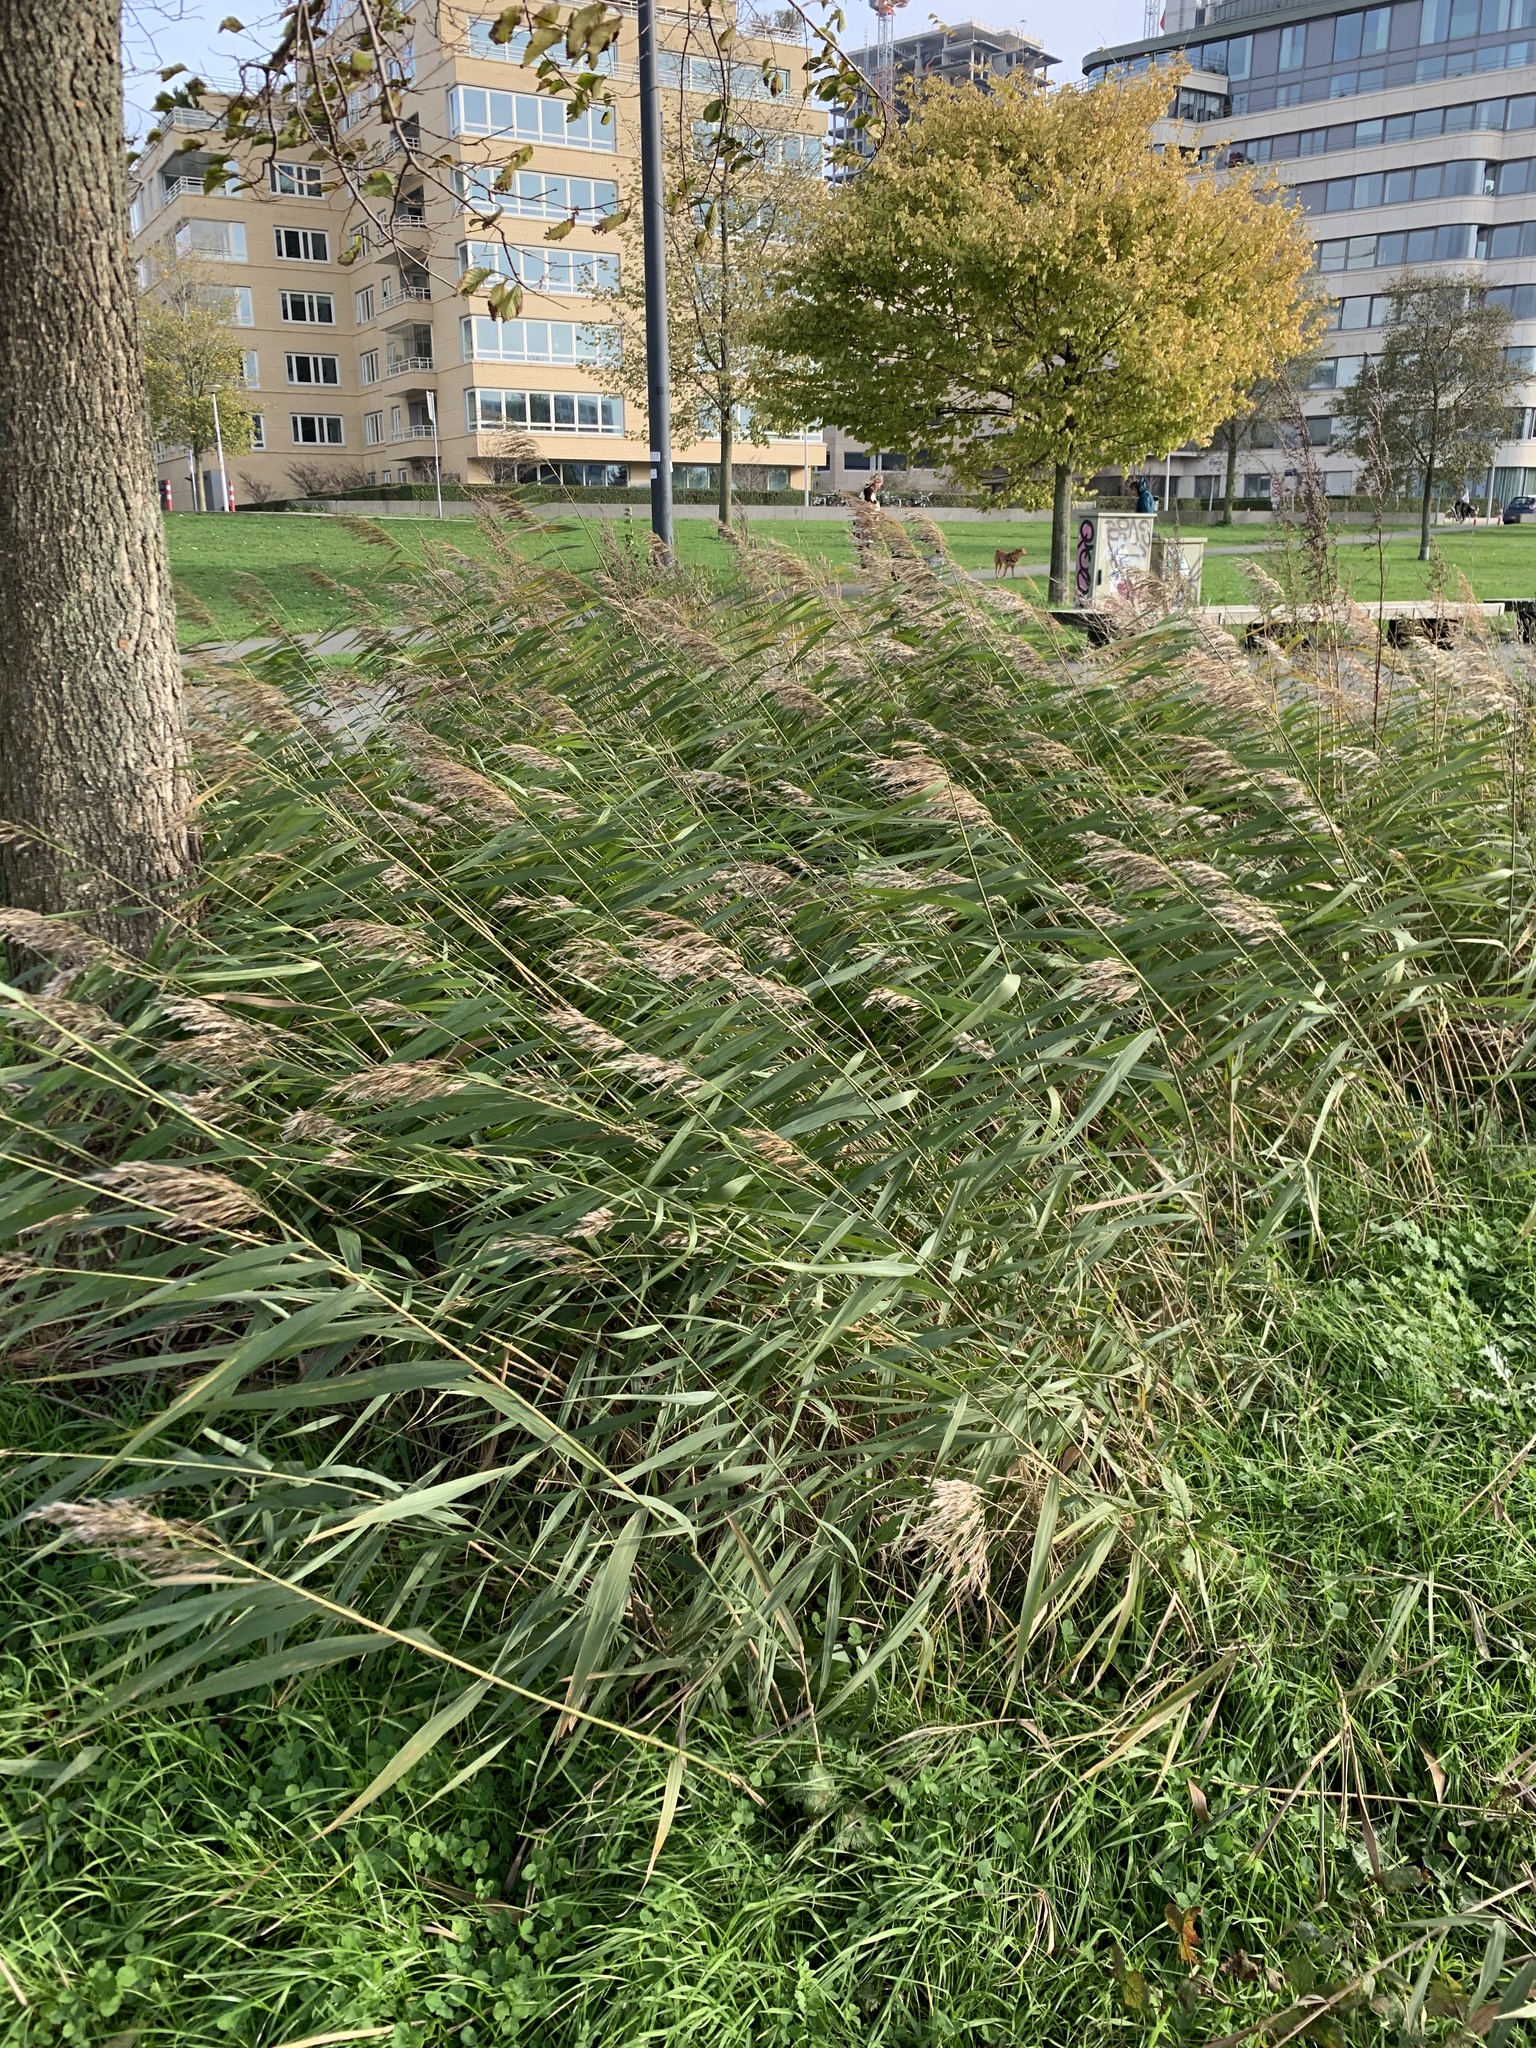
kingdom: Plantae
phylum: Tracheophyta
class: Liliopsida
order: Poales
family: Poaceae
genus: Phragmites
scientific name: Phragmites australis
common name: Common reed
